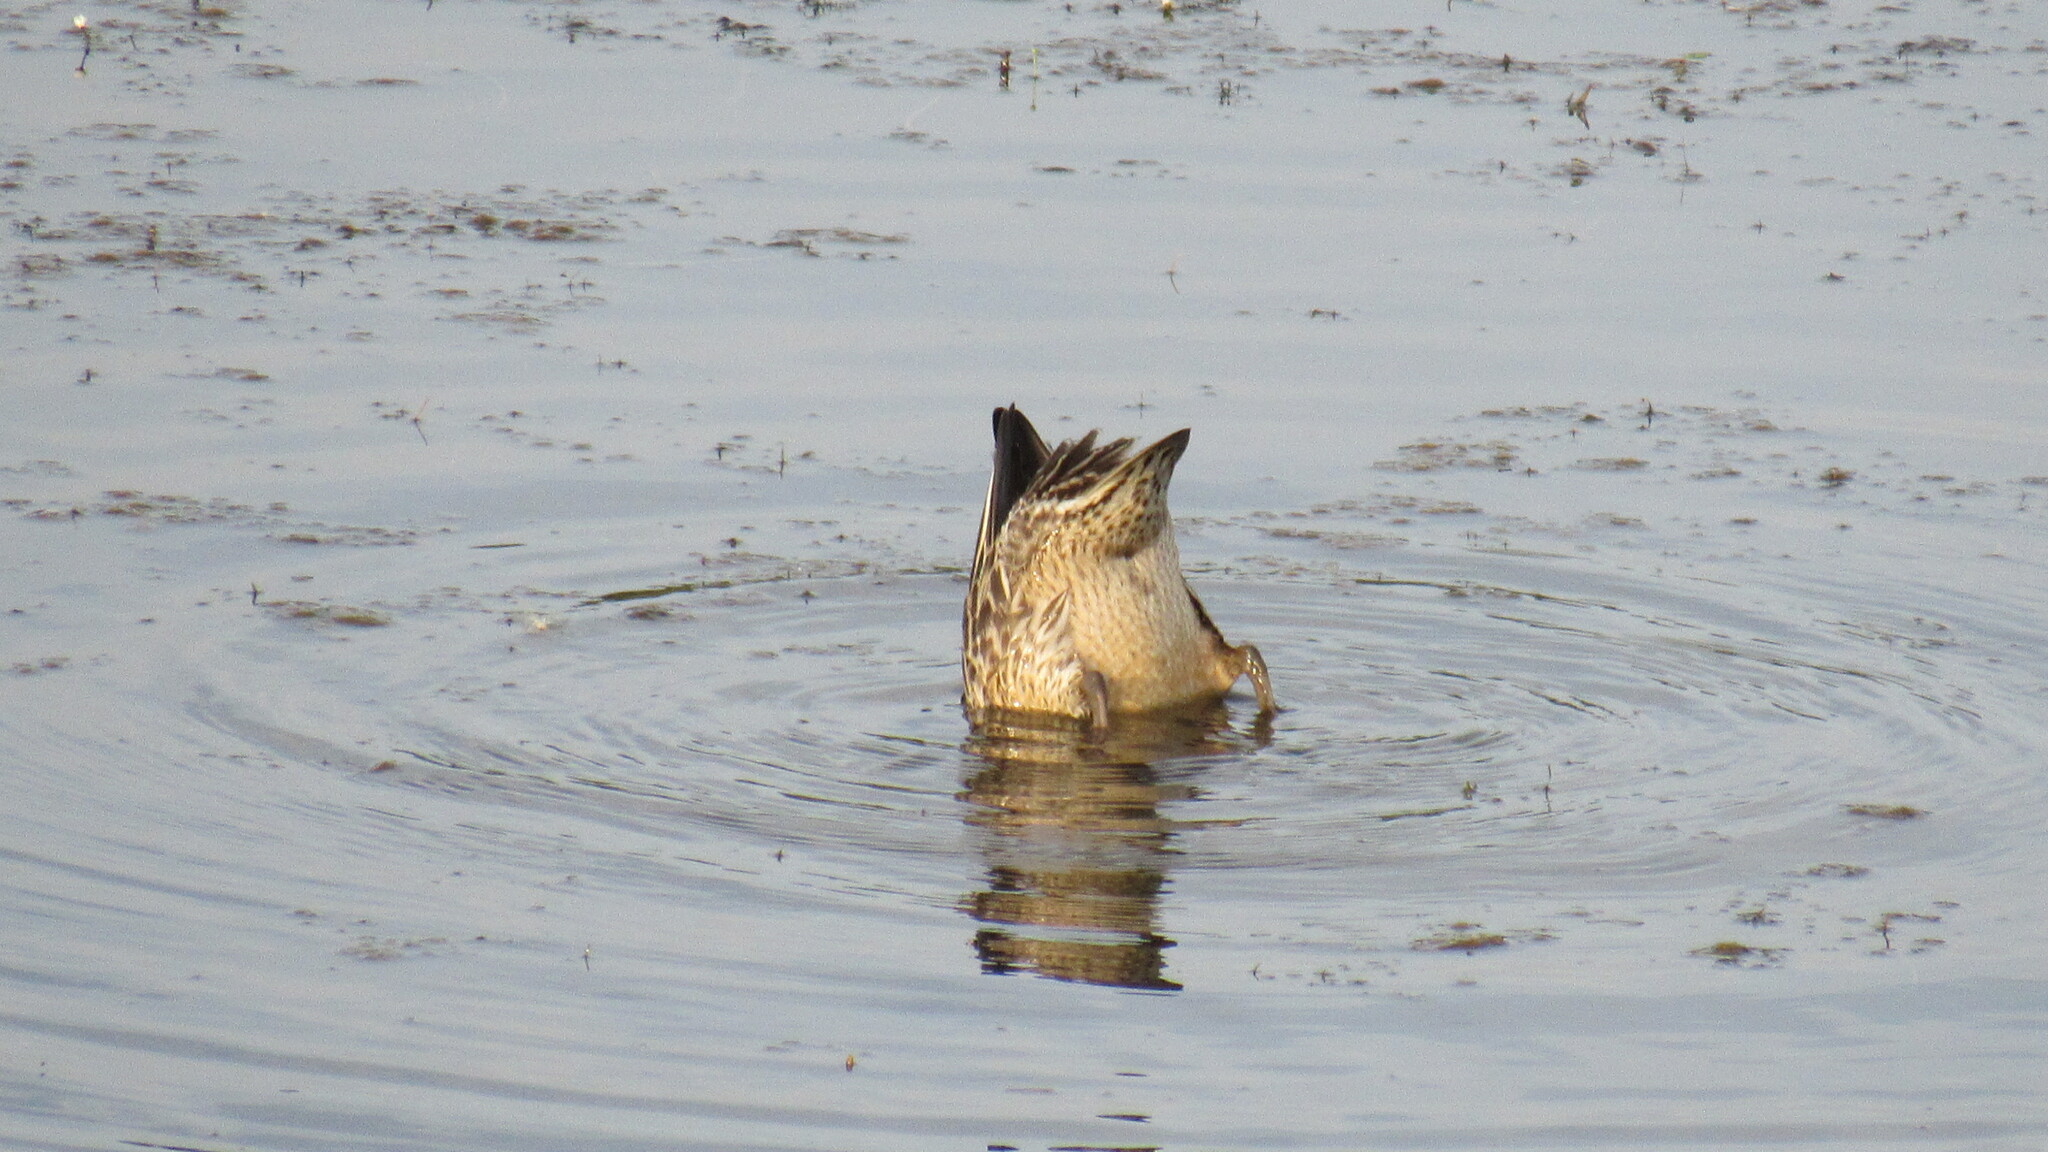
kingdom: Animalia
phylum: Chordata
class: Aves
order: Anseriformes
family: Anatidae
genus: Anas
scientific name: Anas crecca
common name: Eurasian teal
